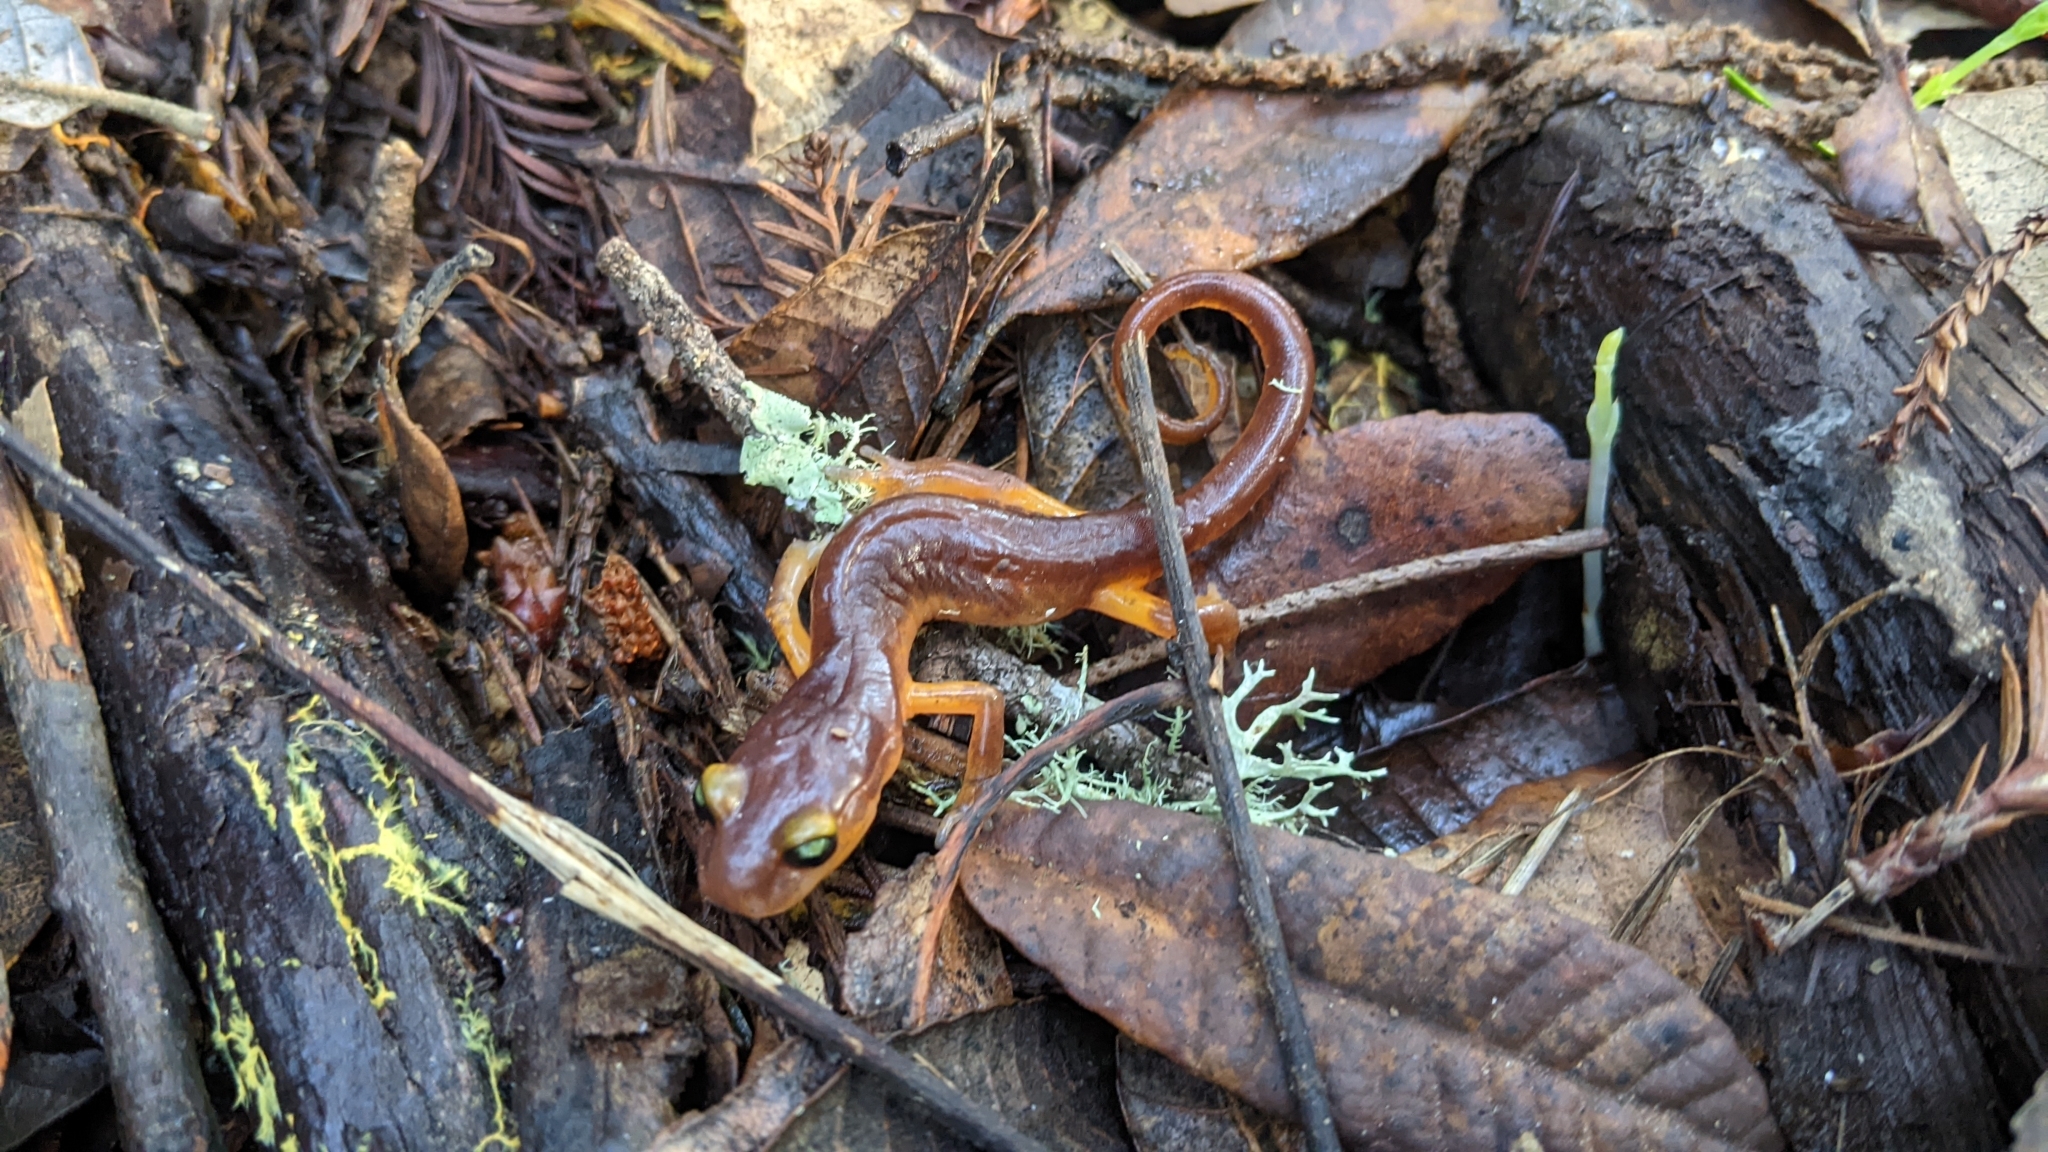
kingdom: Animalia
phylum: Chordata
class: Amphibia
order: Caudata
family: Plethodontidae
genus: Ensatina
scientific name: Ensatina eschscholtzii
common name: Ensatina
